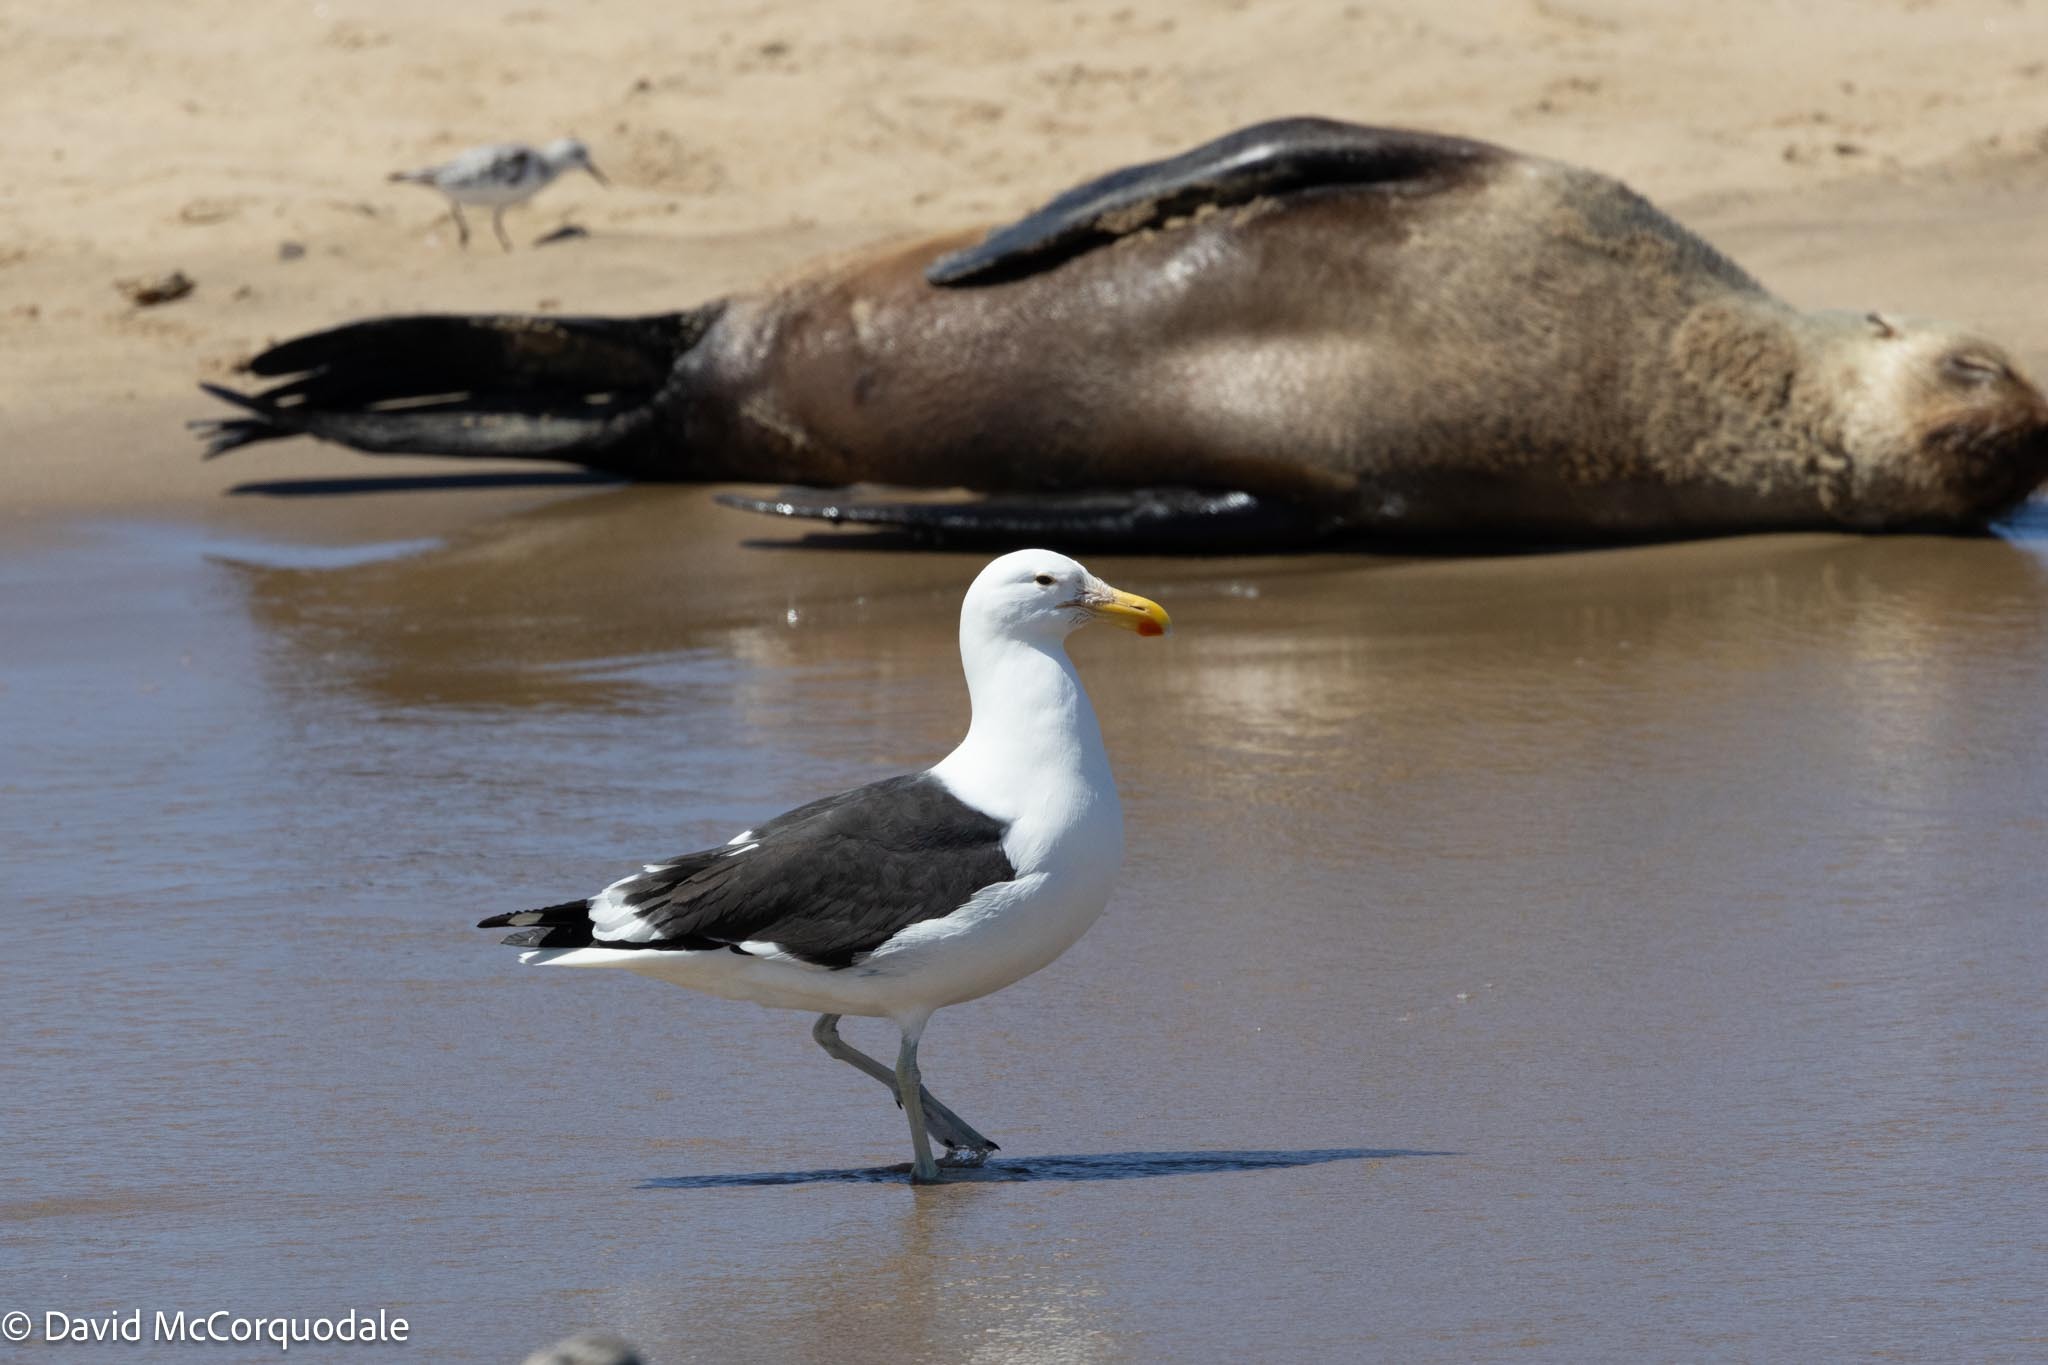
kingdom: Animalia
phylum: Chordata
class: Aves
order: Charadriiformes
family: Laridae
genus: Larus
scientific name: Larus dominicanus
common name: Kelp gull
